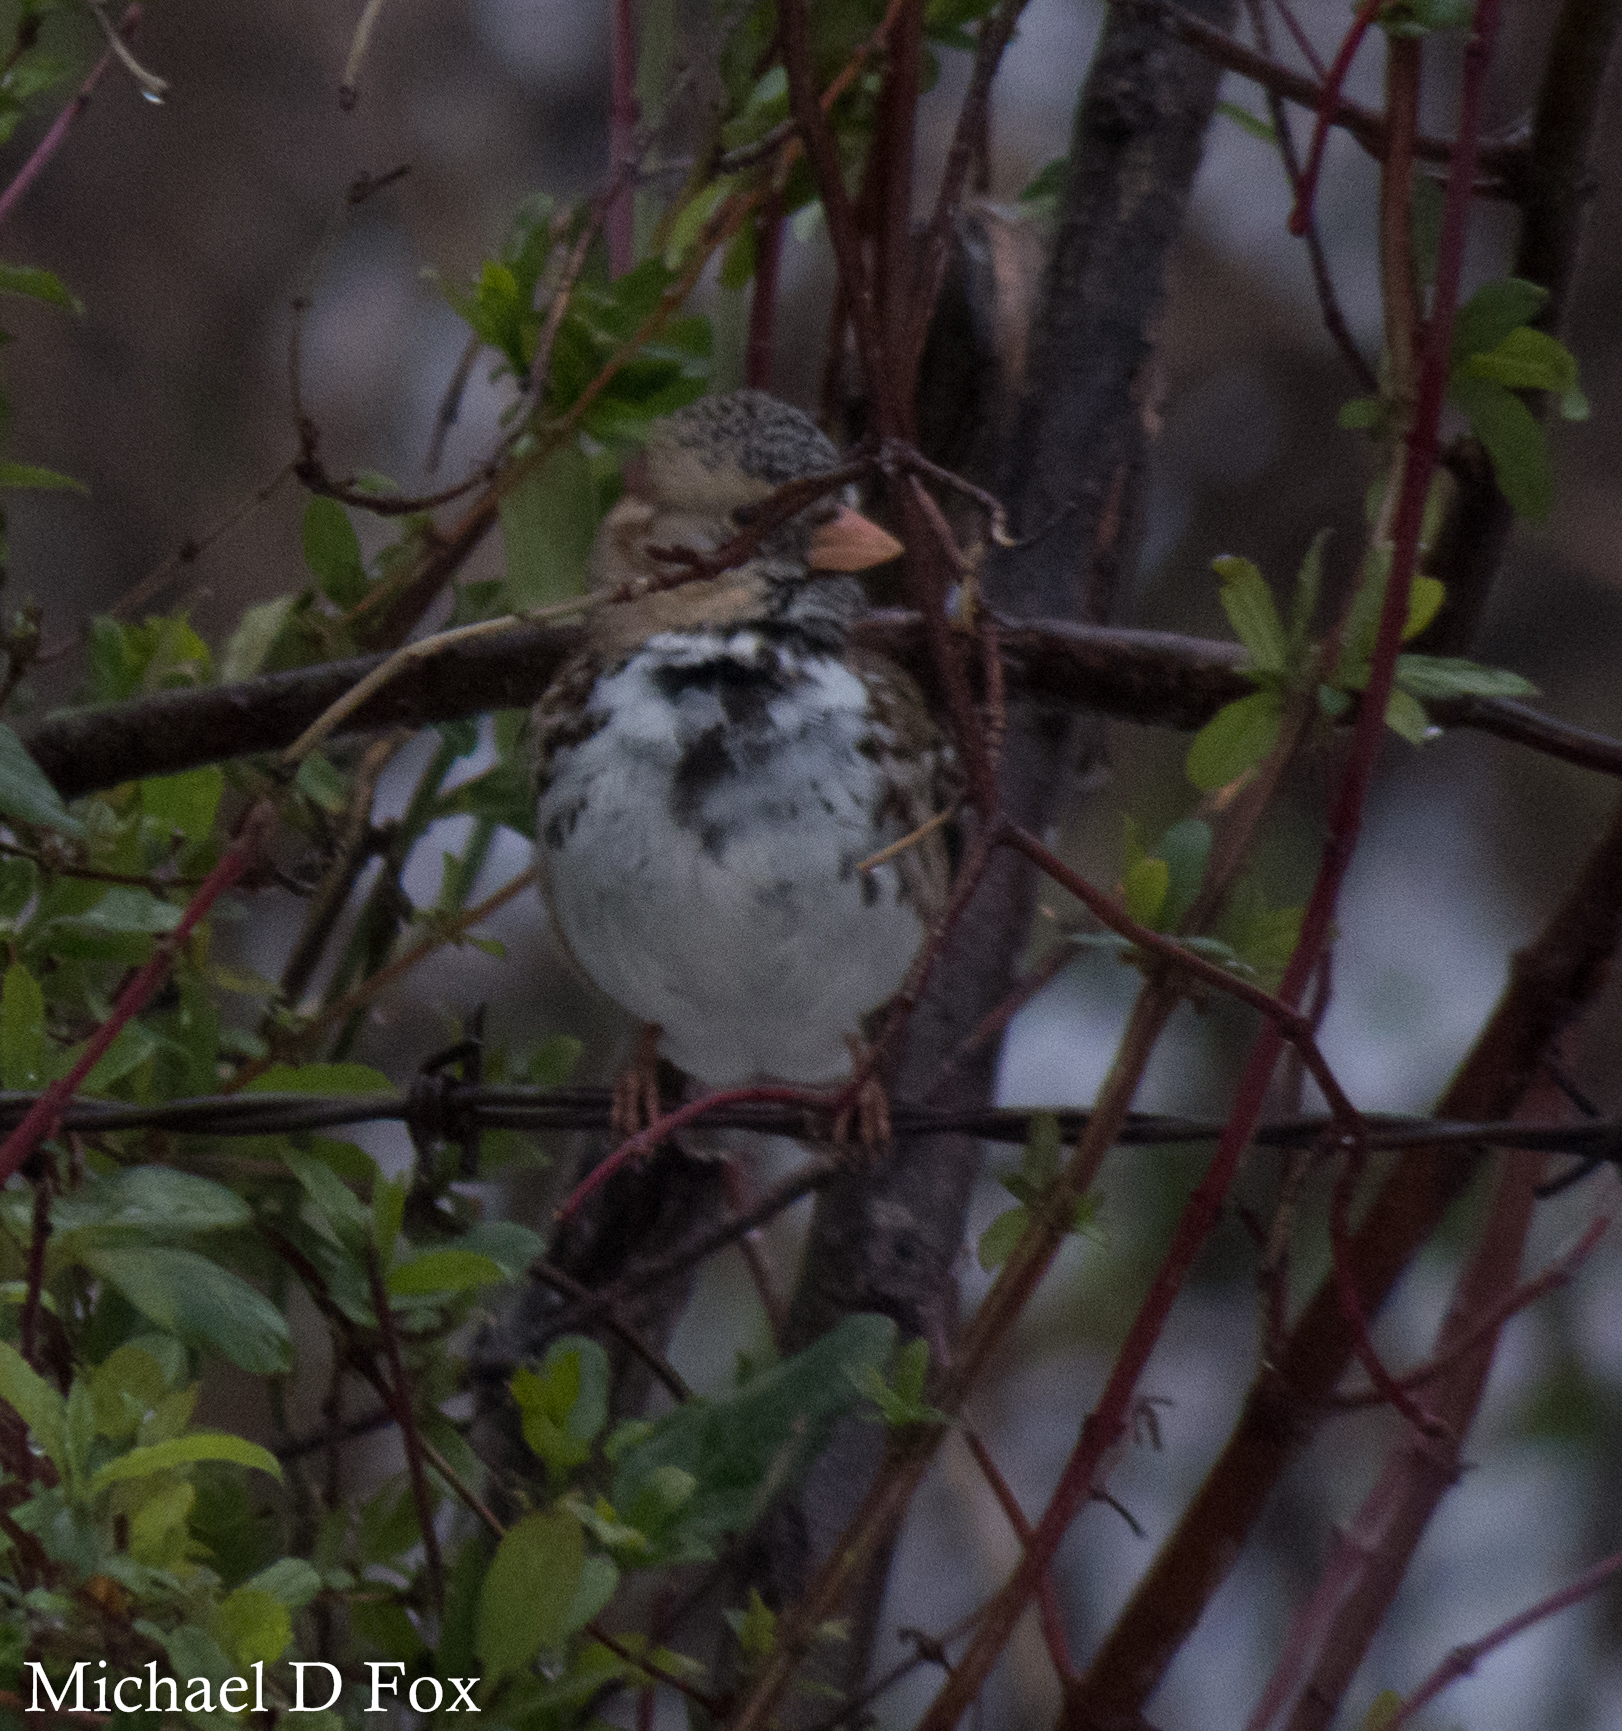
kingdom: Animalia
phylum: Chordata
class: Aves
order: Passeriformes
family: Passerellidae
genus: Zonotrichia
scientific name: Zonotrichia querula
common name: Harris's sparrow
